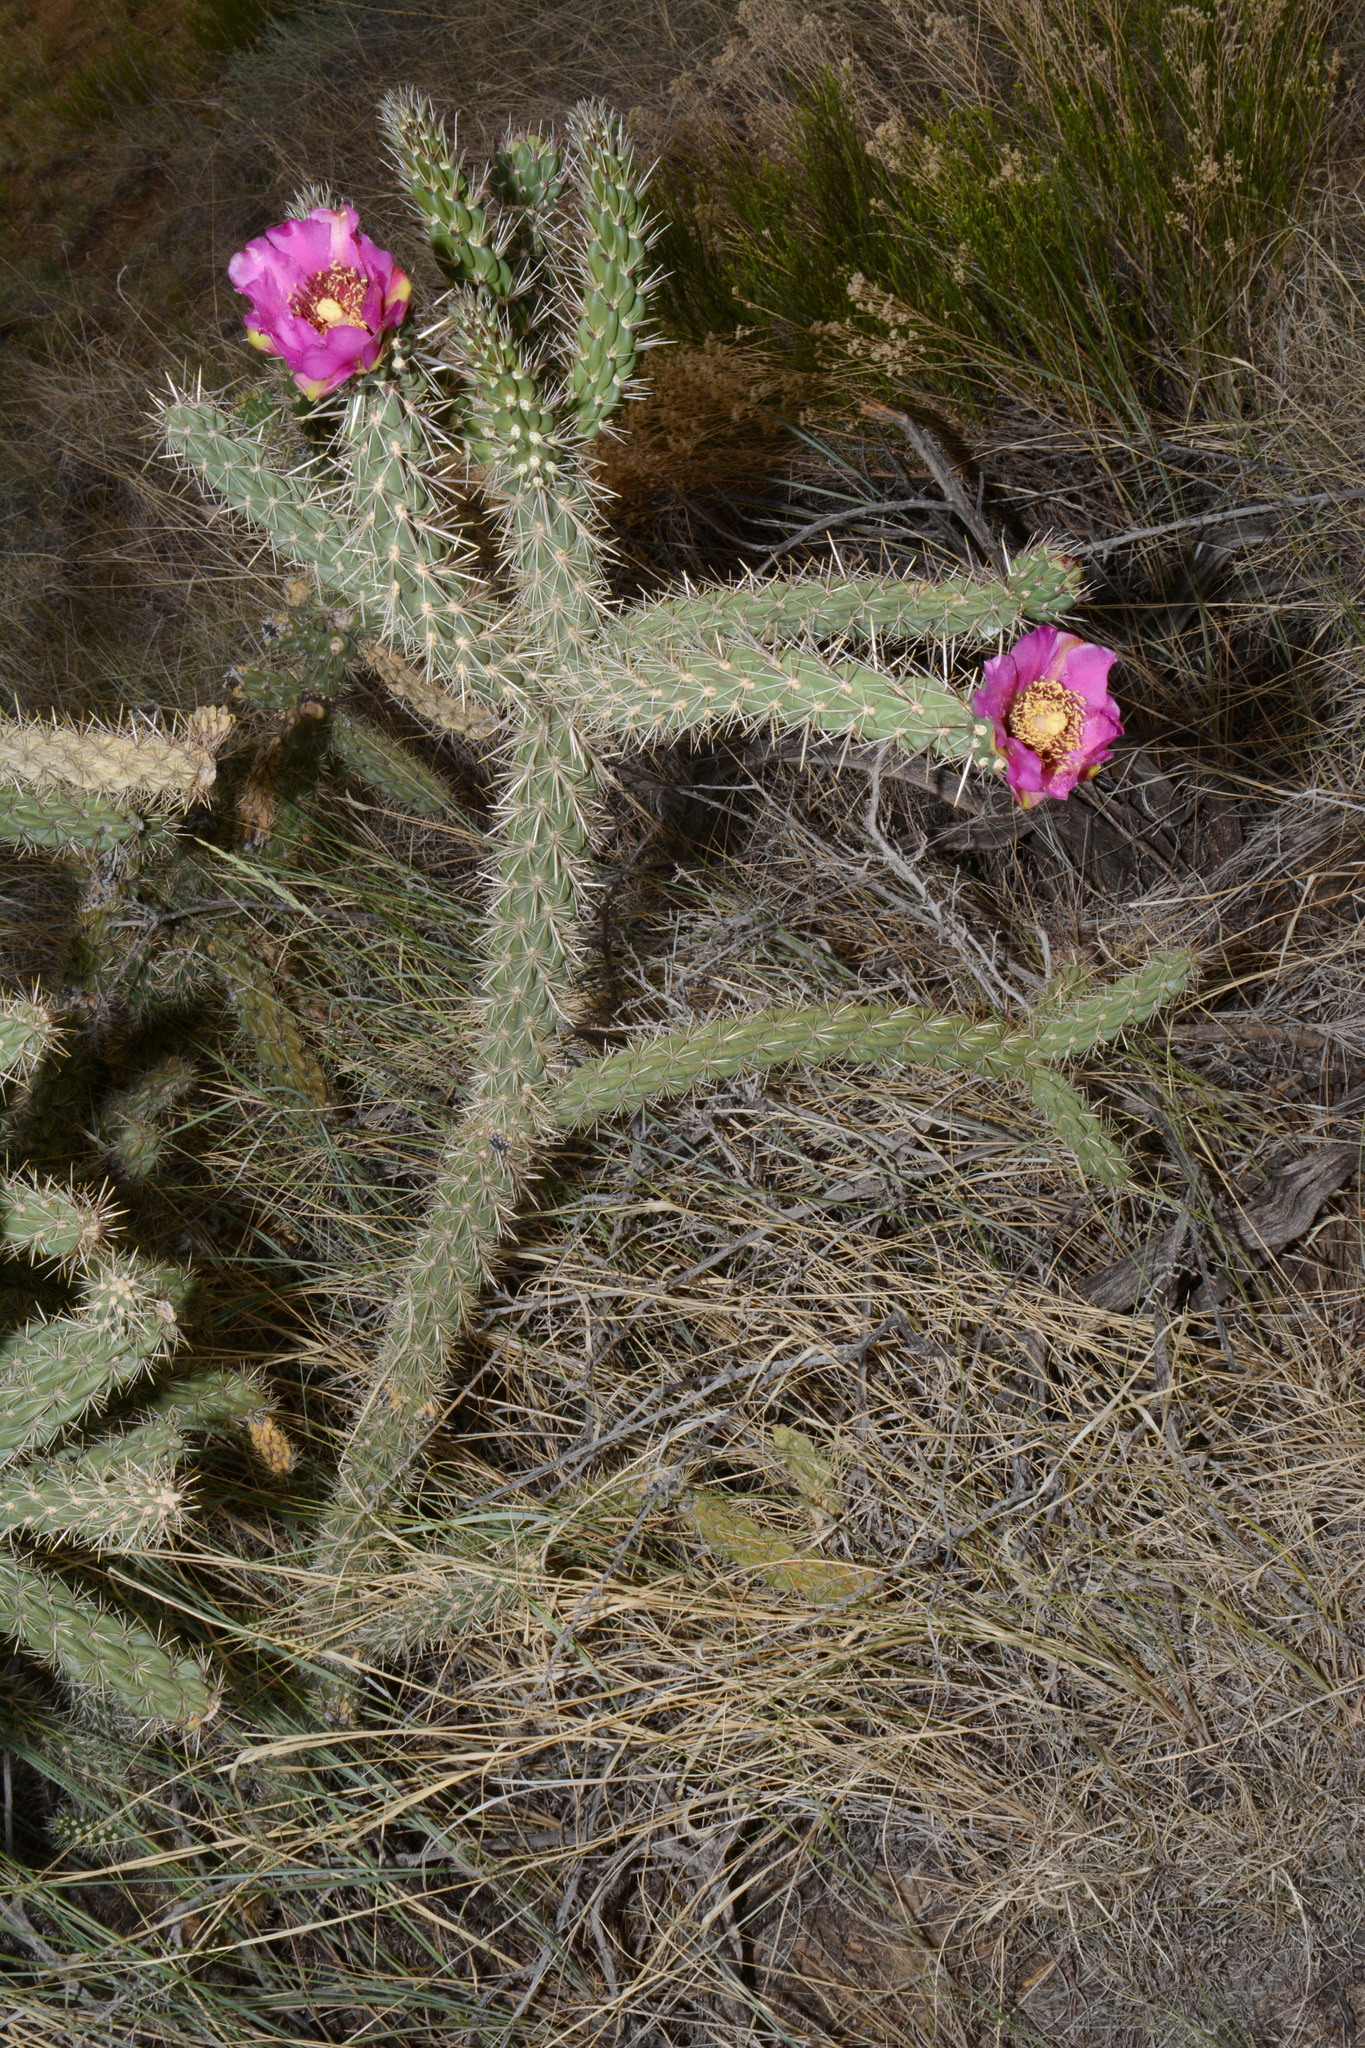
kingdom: Plantae
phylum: Tracheophyta
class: Magnoliopsida
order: Caryophyllales
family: Cactaceae
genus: Cylindropuntia
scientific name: Cylindropuntia imbricata
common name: Candelabrum cactus
